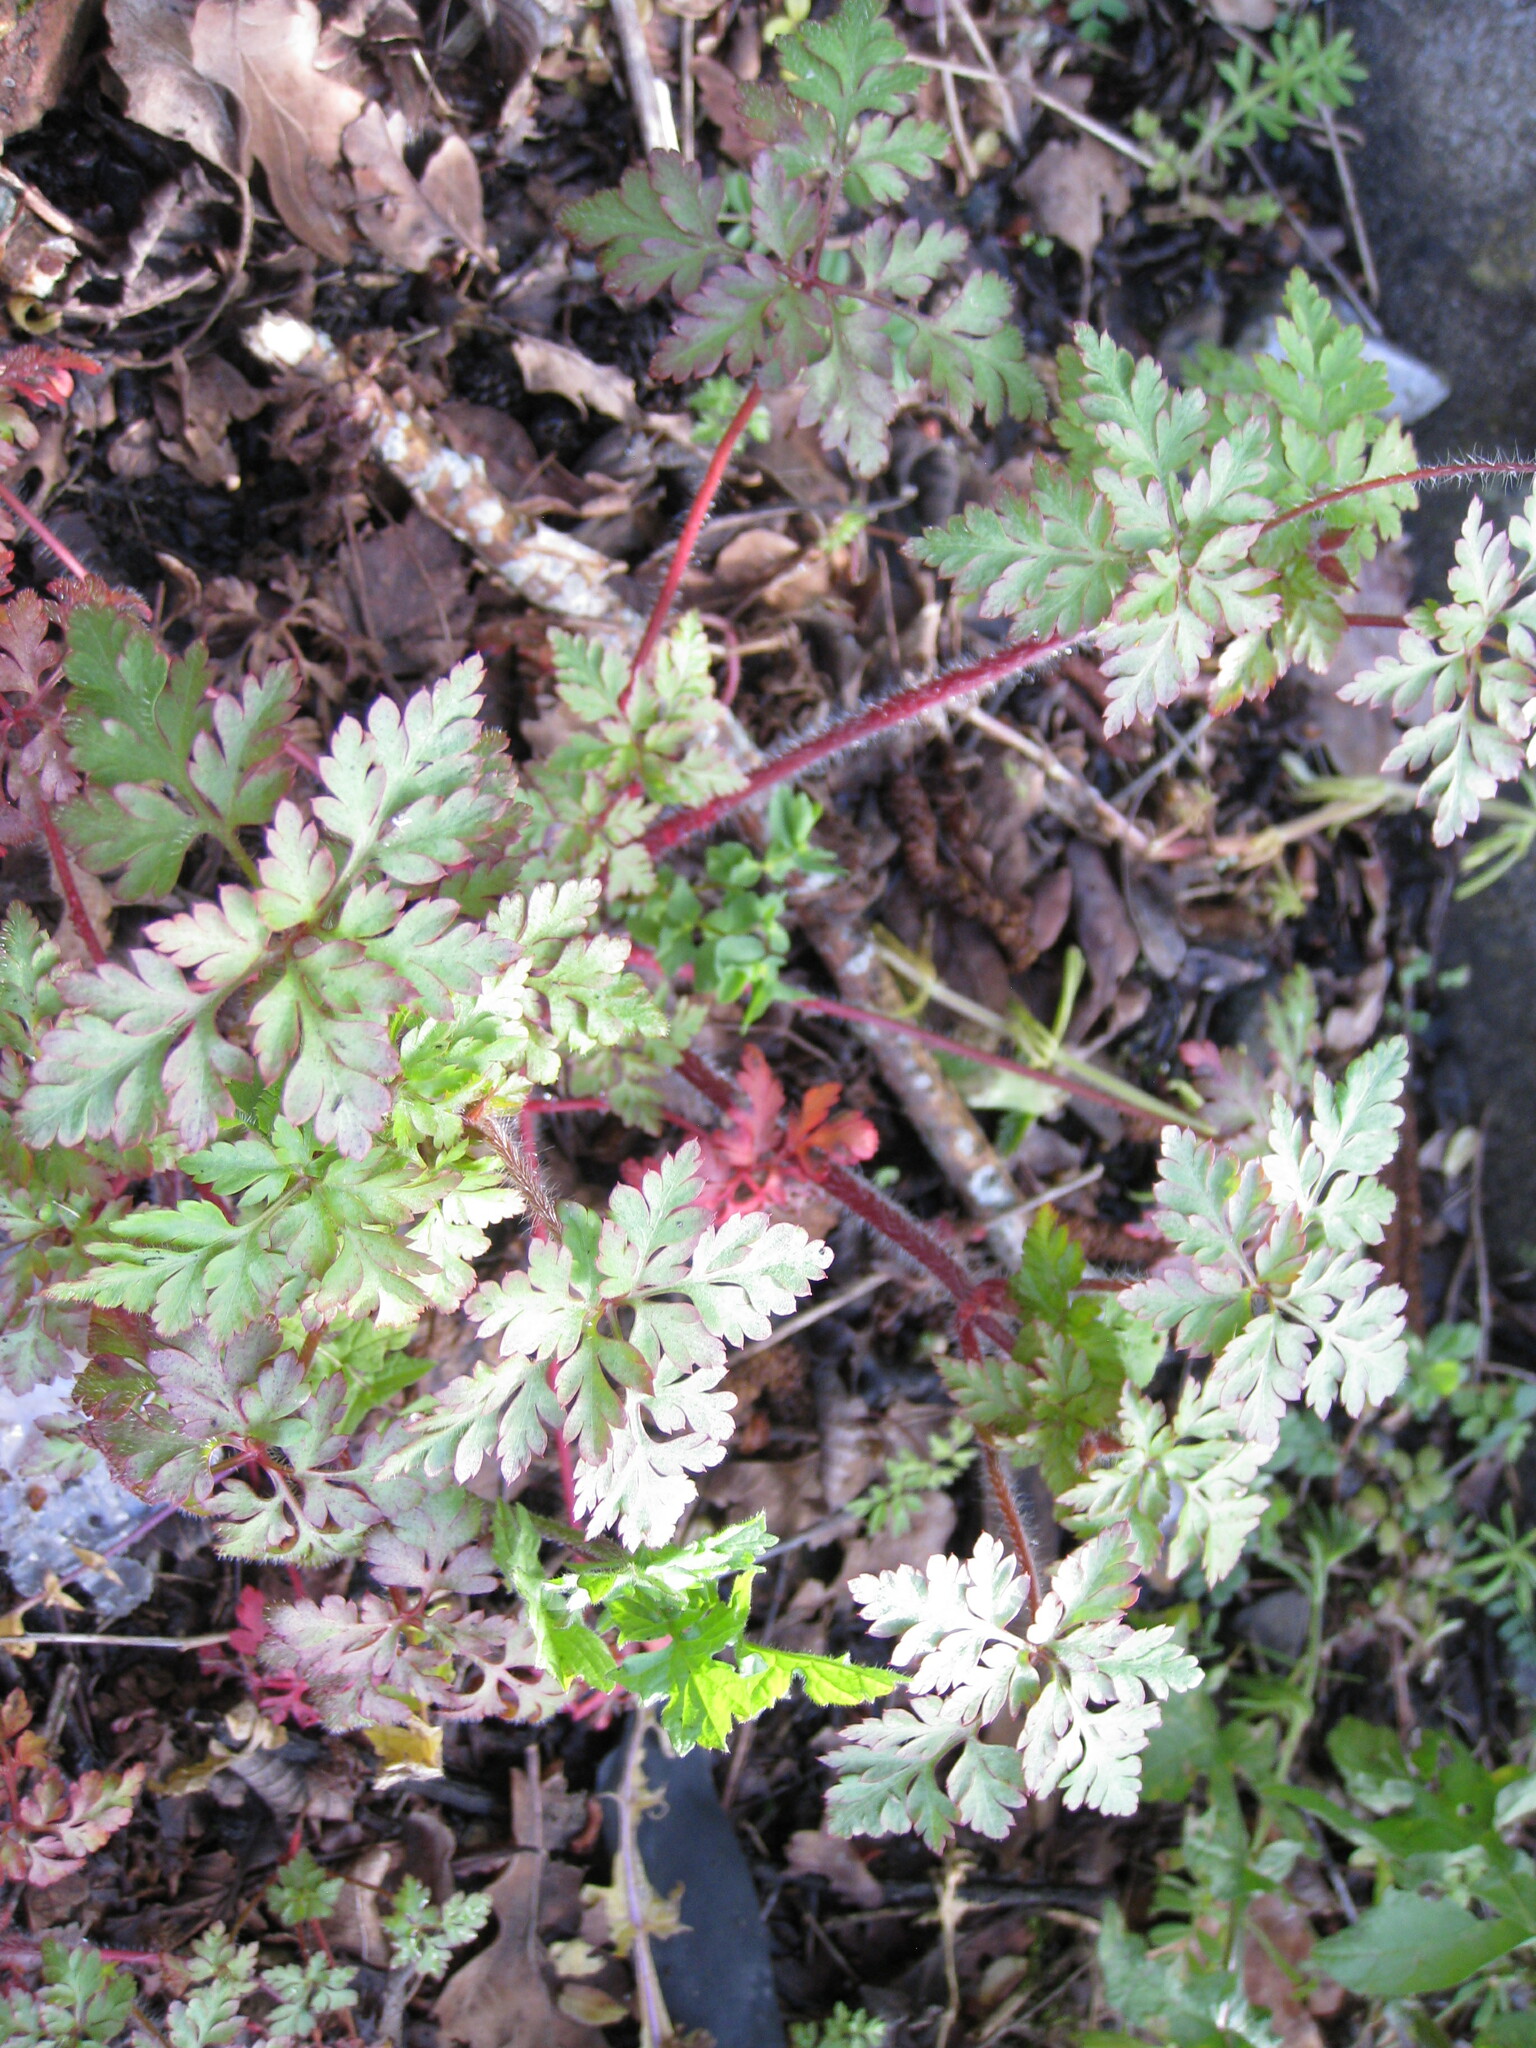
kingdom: Plantae
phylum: Tracheophyta
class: Magnoliopsida
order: Geraniales
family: Geraniaceae
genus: Geranium
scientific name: Geranium robertianum
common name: Herb-robert
